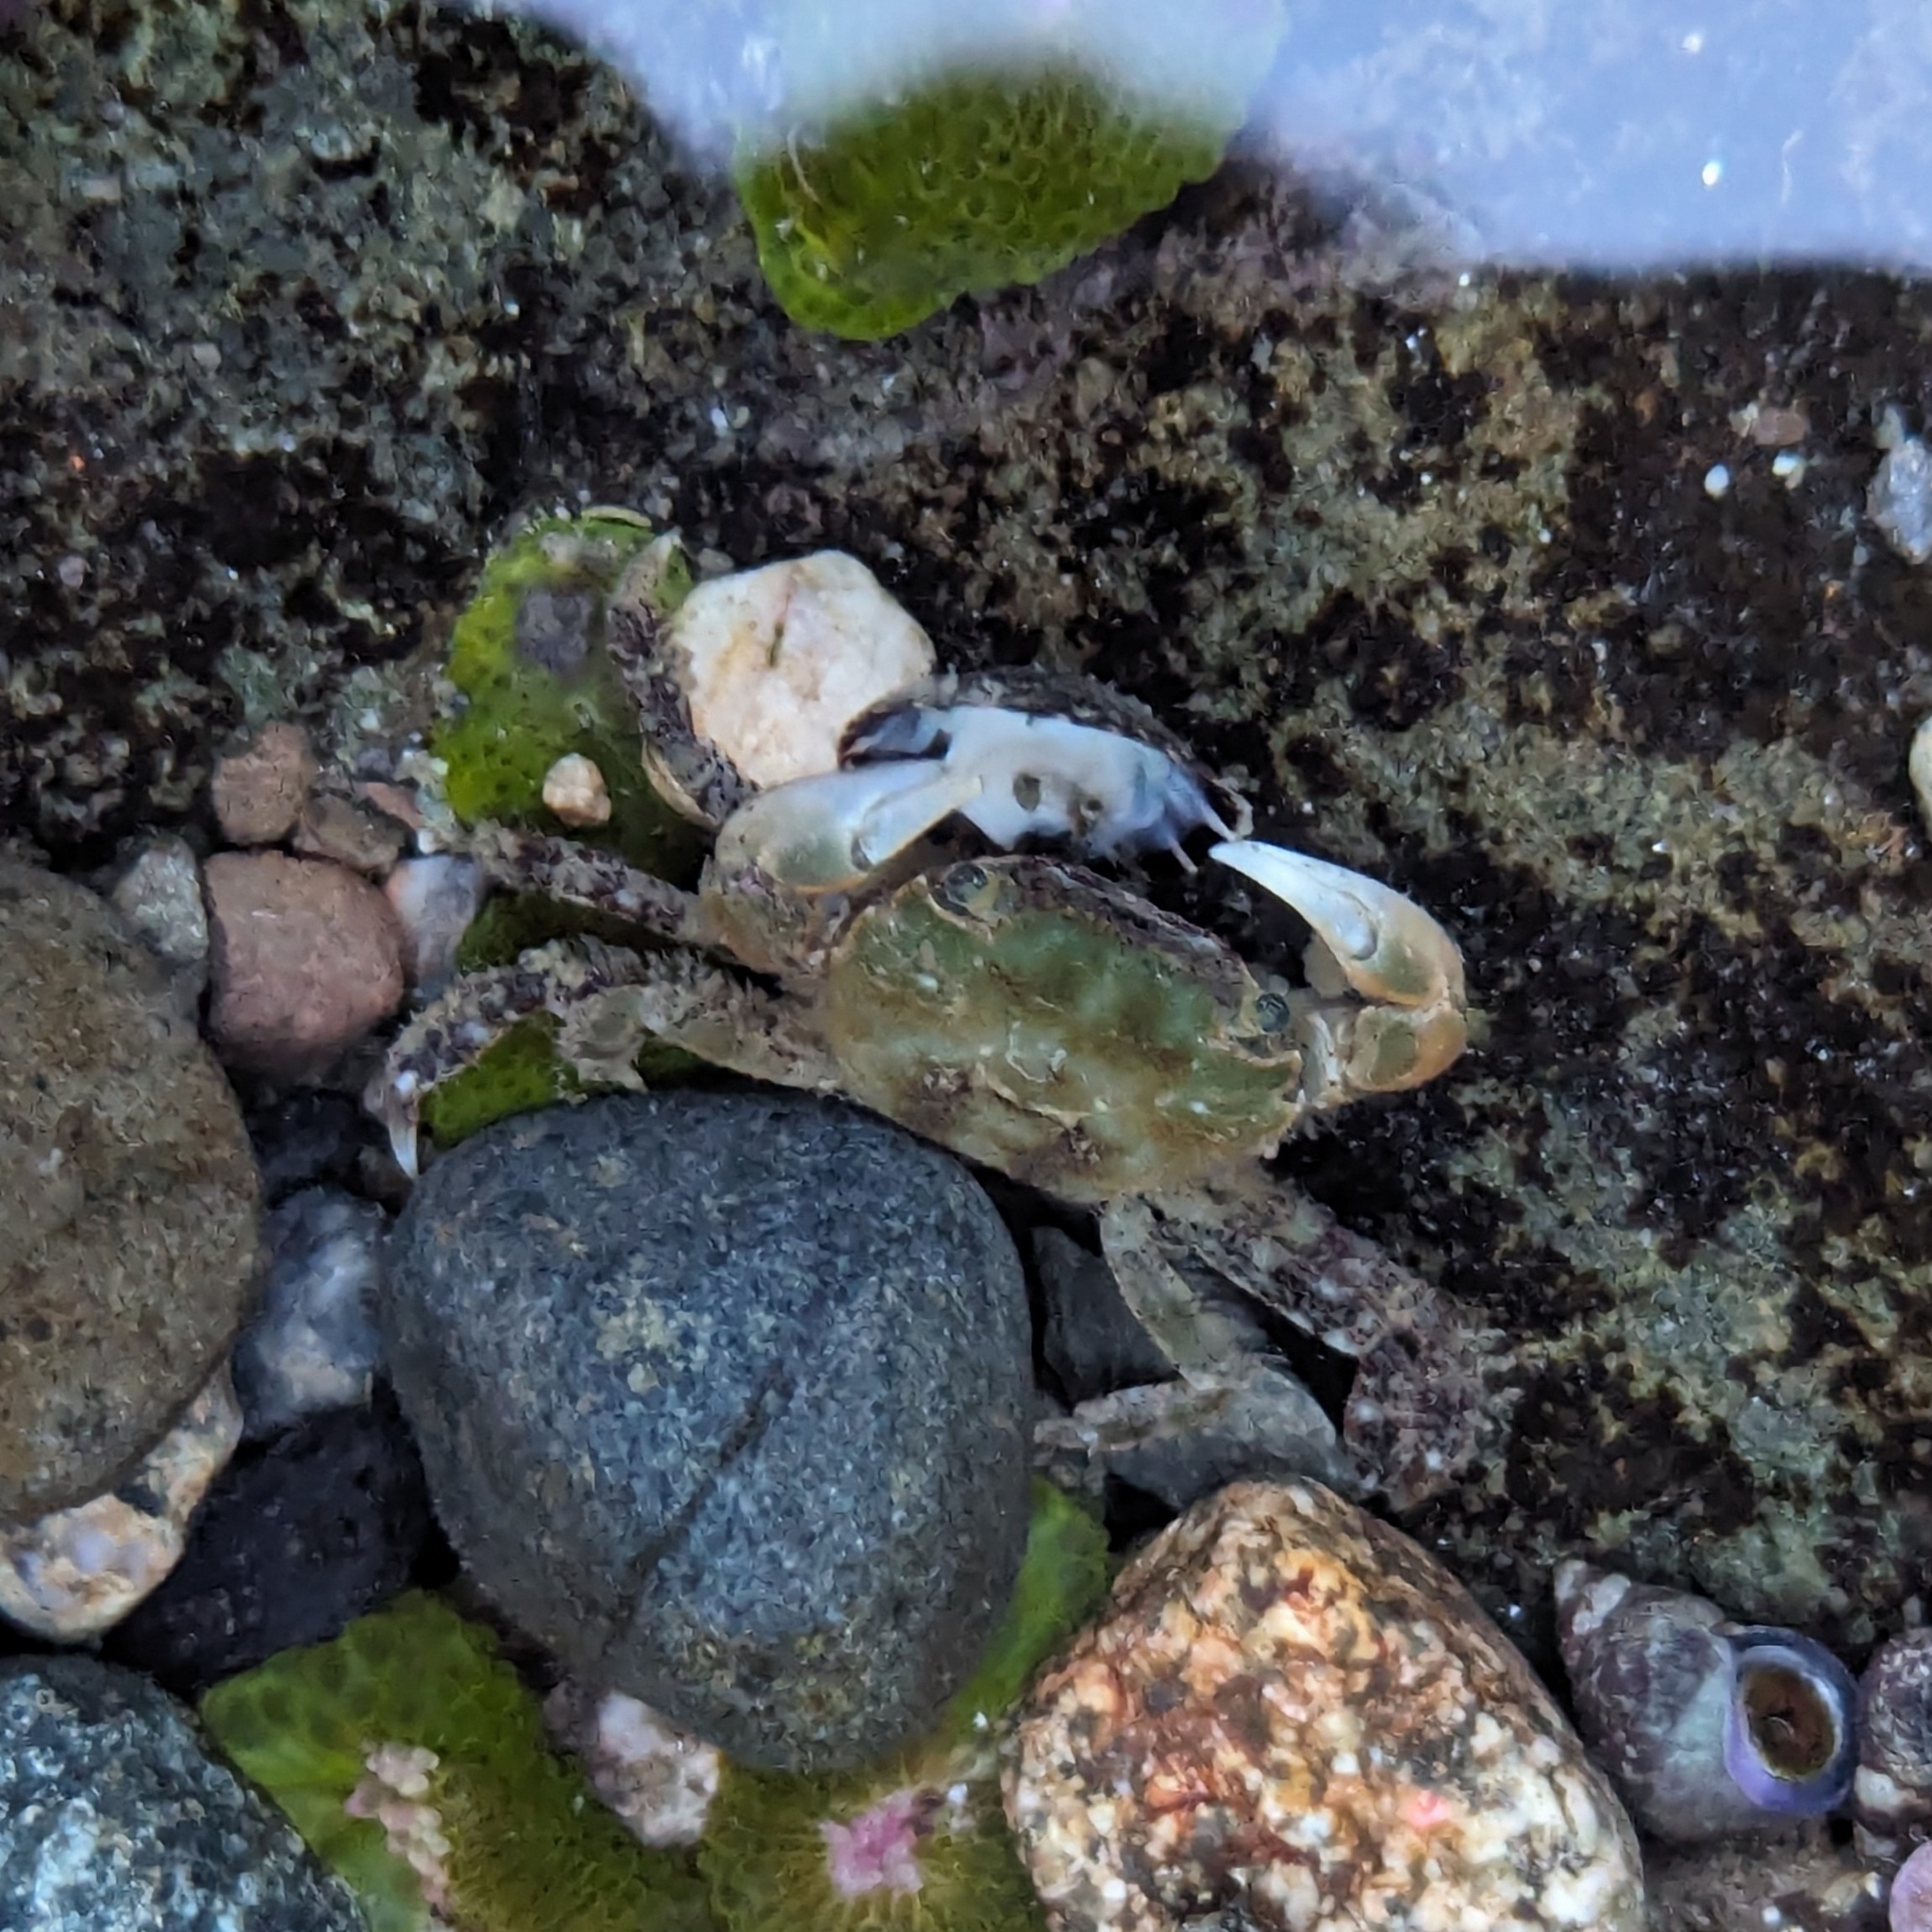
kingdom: Animalia
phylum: Arthropoda
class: Malacostraca
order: Decapoda
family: Varunidae
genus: Hemigrapsus
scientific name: Hemigrapsus oregonensis
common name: Yellow shore crab
